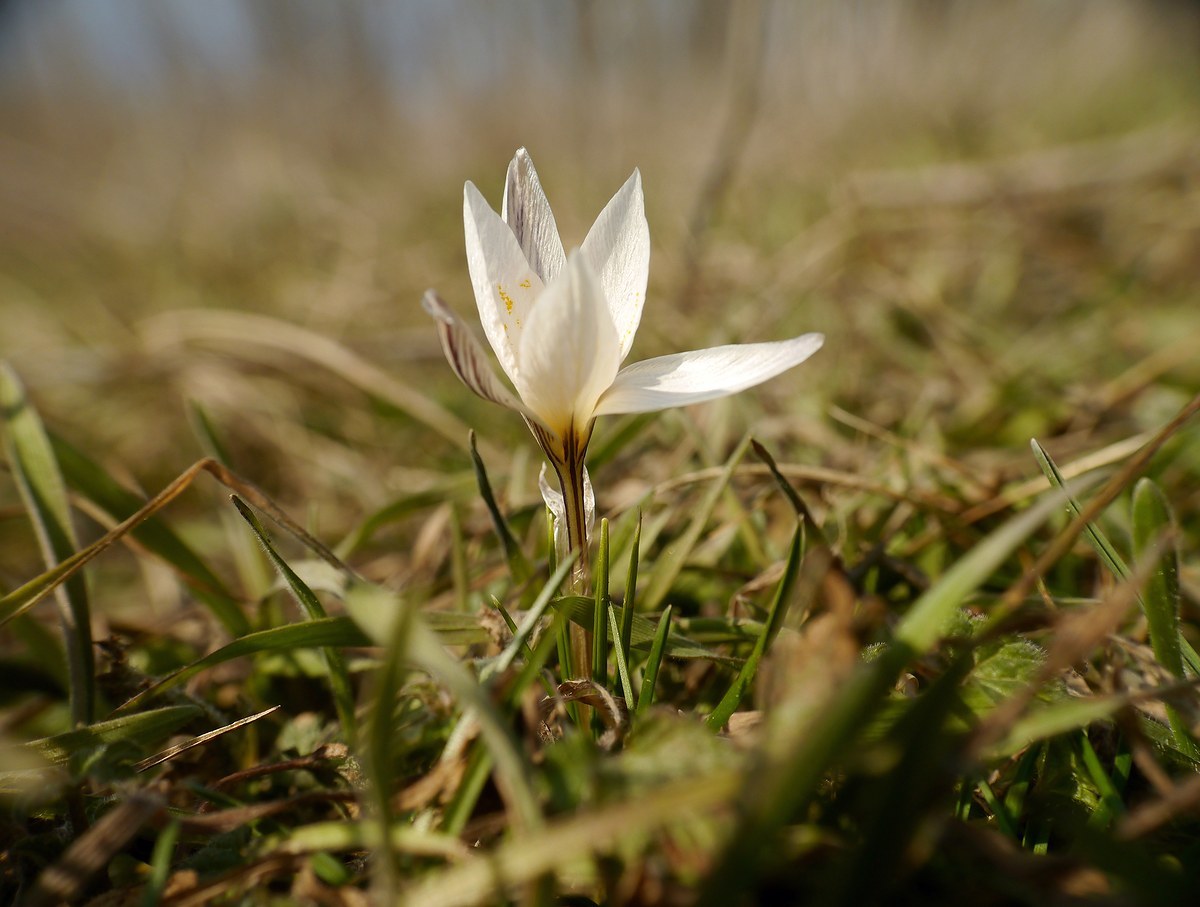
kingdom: Plantae
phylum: Tracheophyta
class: Liliopsida
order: Asparagales
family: Iridaceae
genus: Crocus
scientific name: Crocus reticulatus
